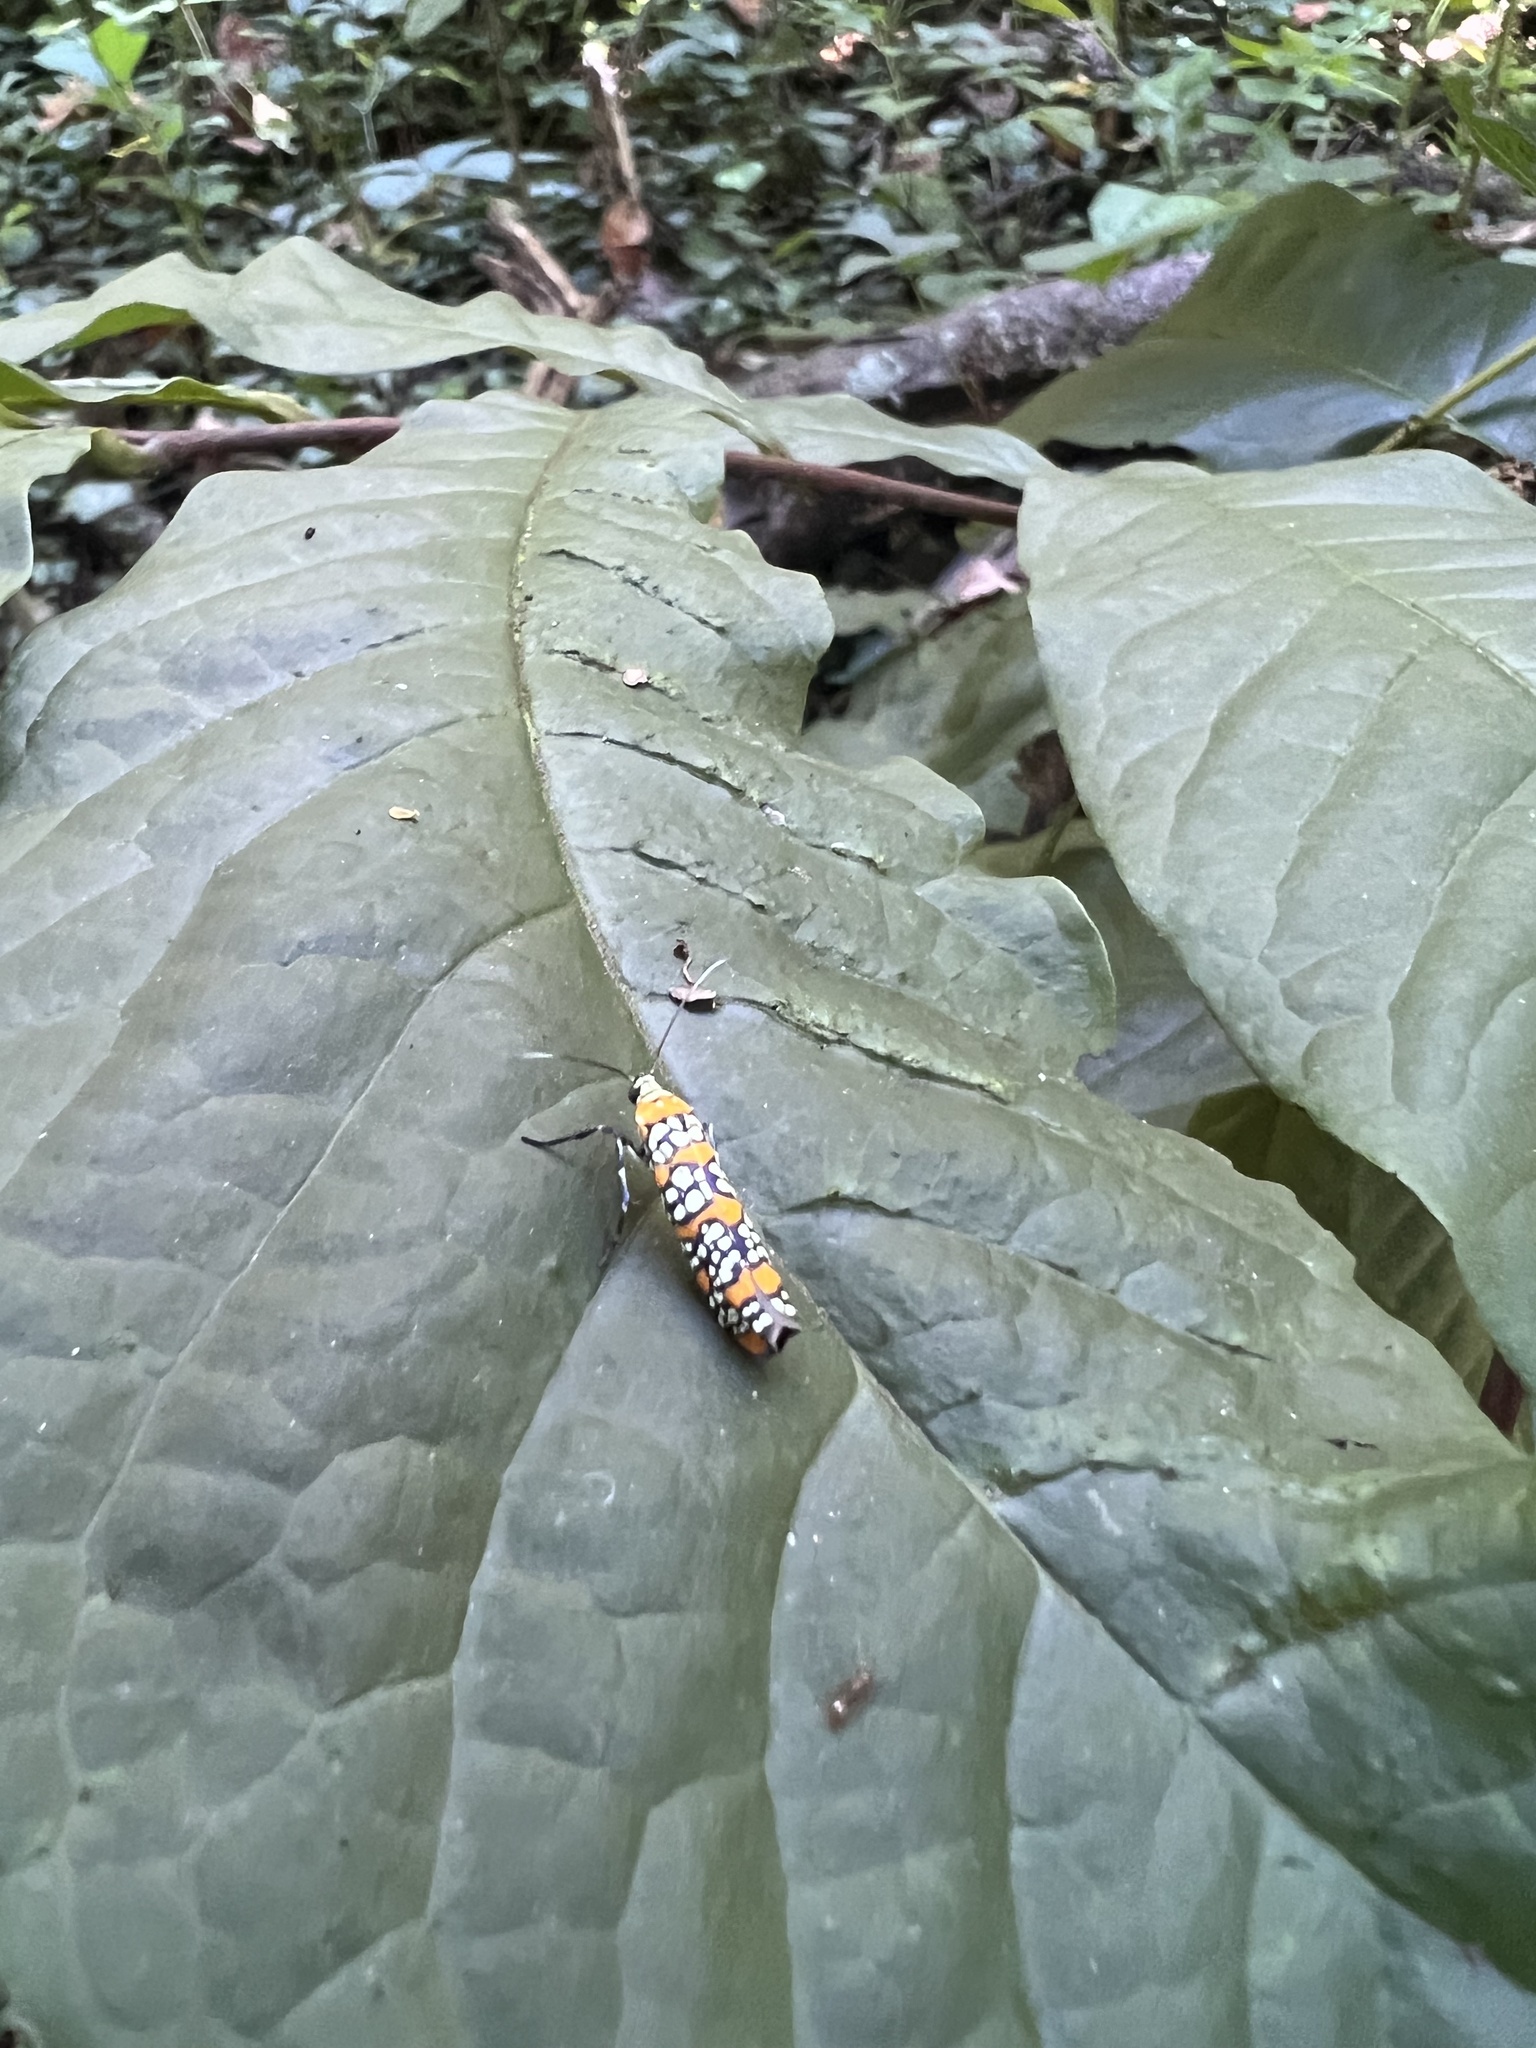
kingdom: Animalia
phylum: Arthropoda
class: Insecta
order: Lepidoptera
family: Attevidae
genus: Atteva
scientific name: Atteva punctella
